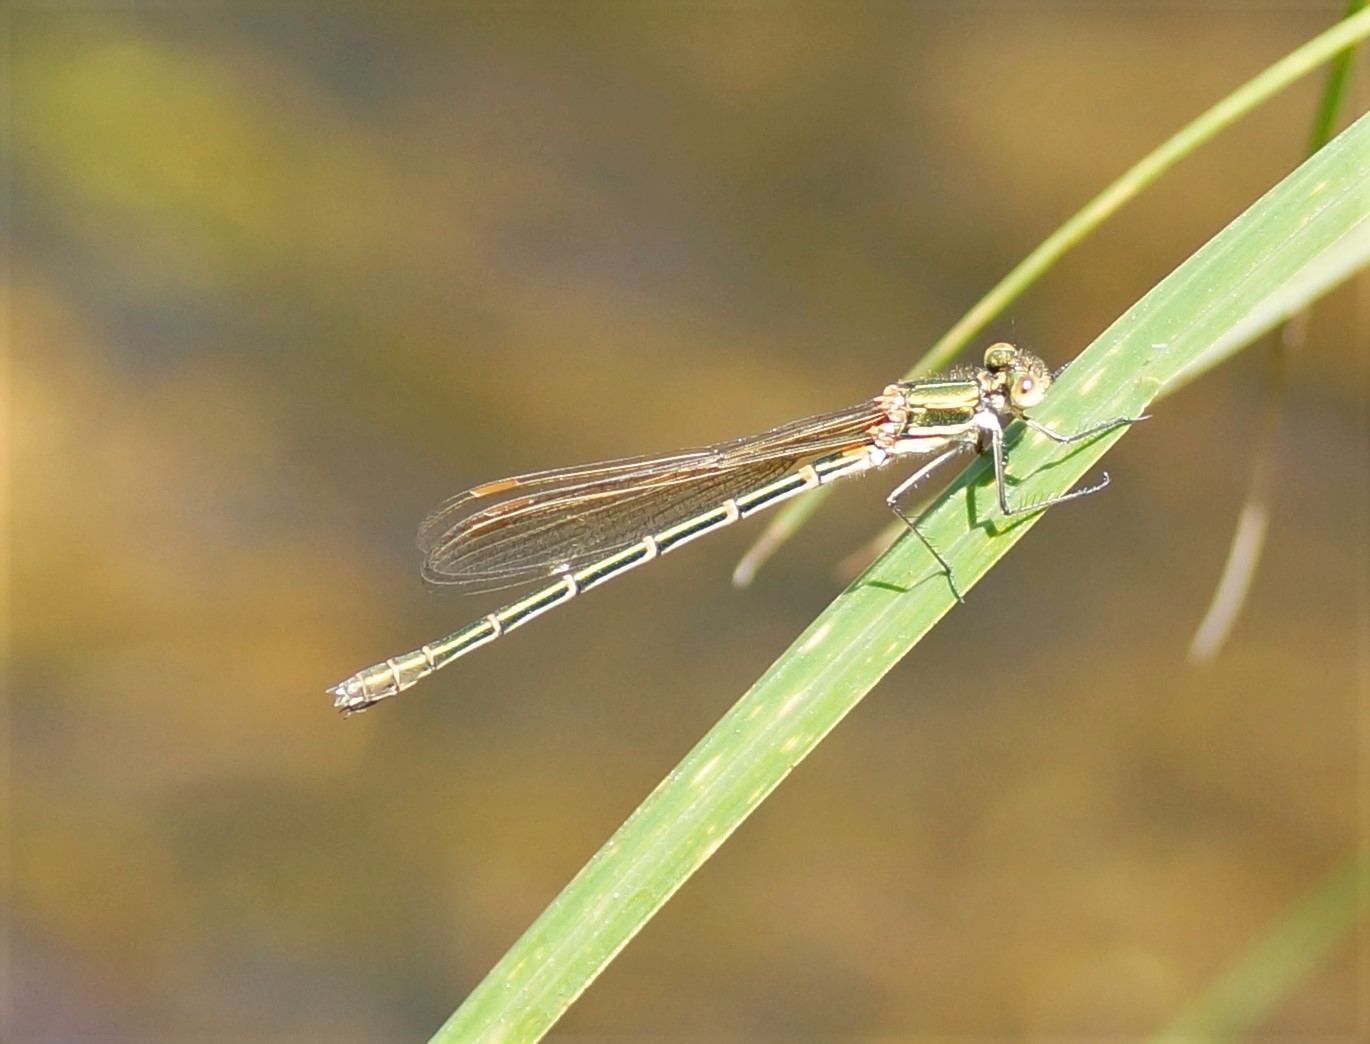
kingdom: Animalia
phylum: Arthropoda
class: Insecta
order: Odonata
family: Lestidae
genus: Austrolestes
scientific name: Austrolestes cingulatus
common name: Metallic ringtail
